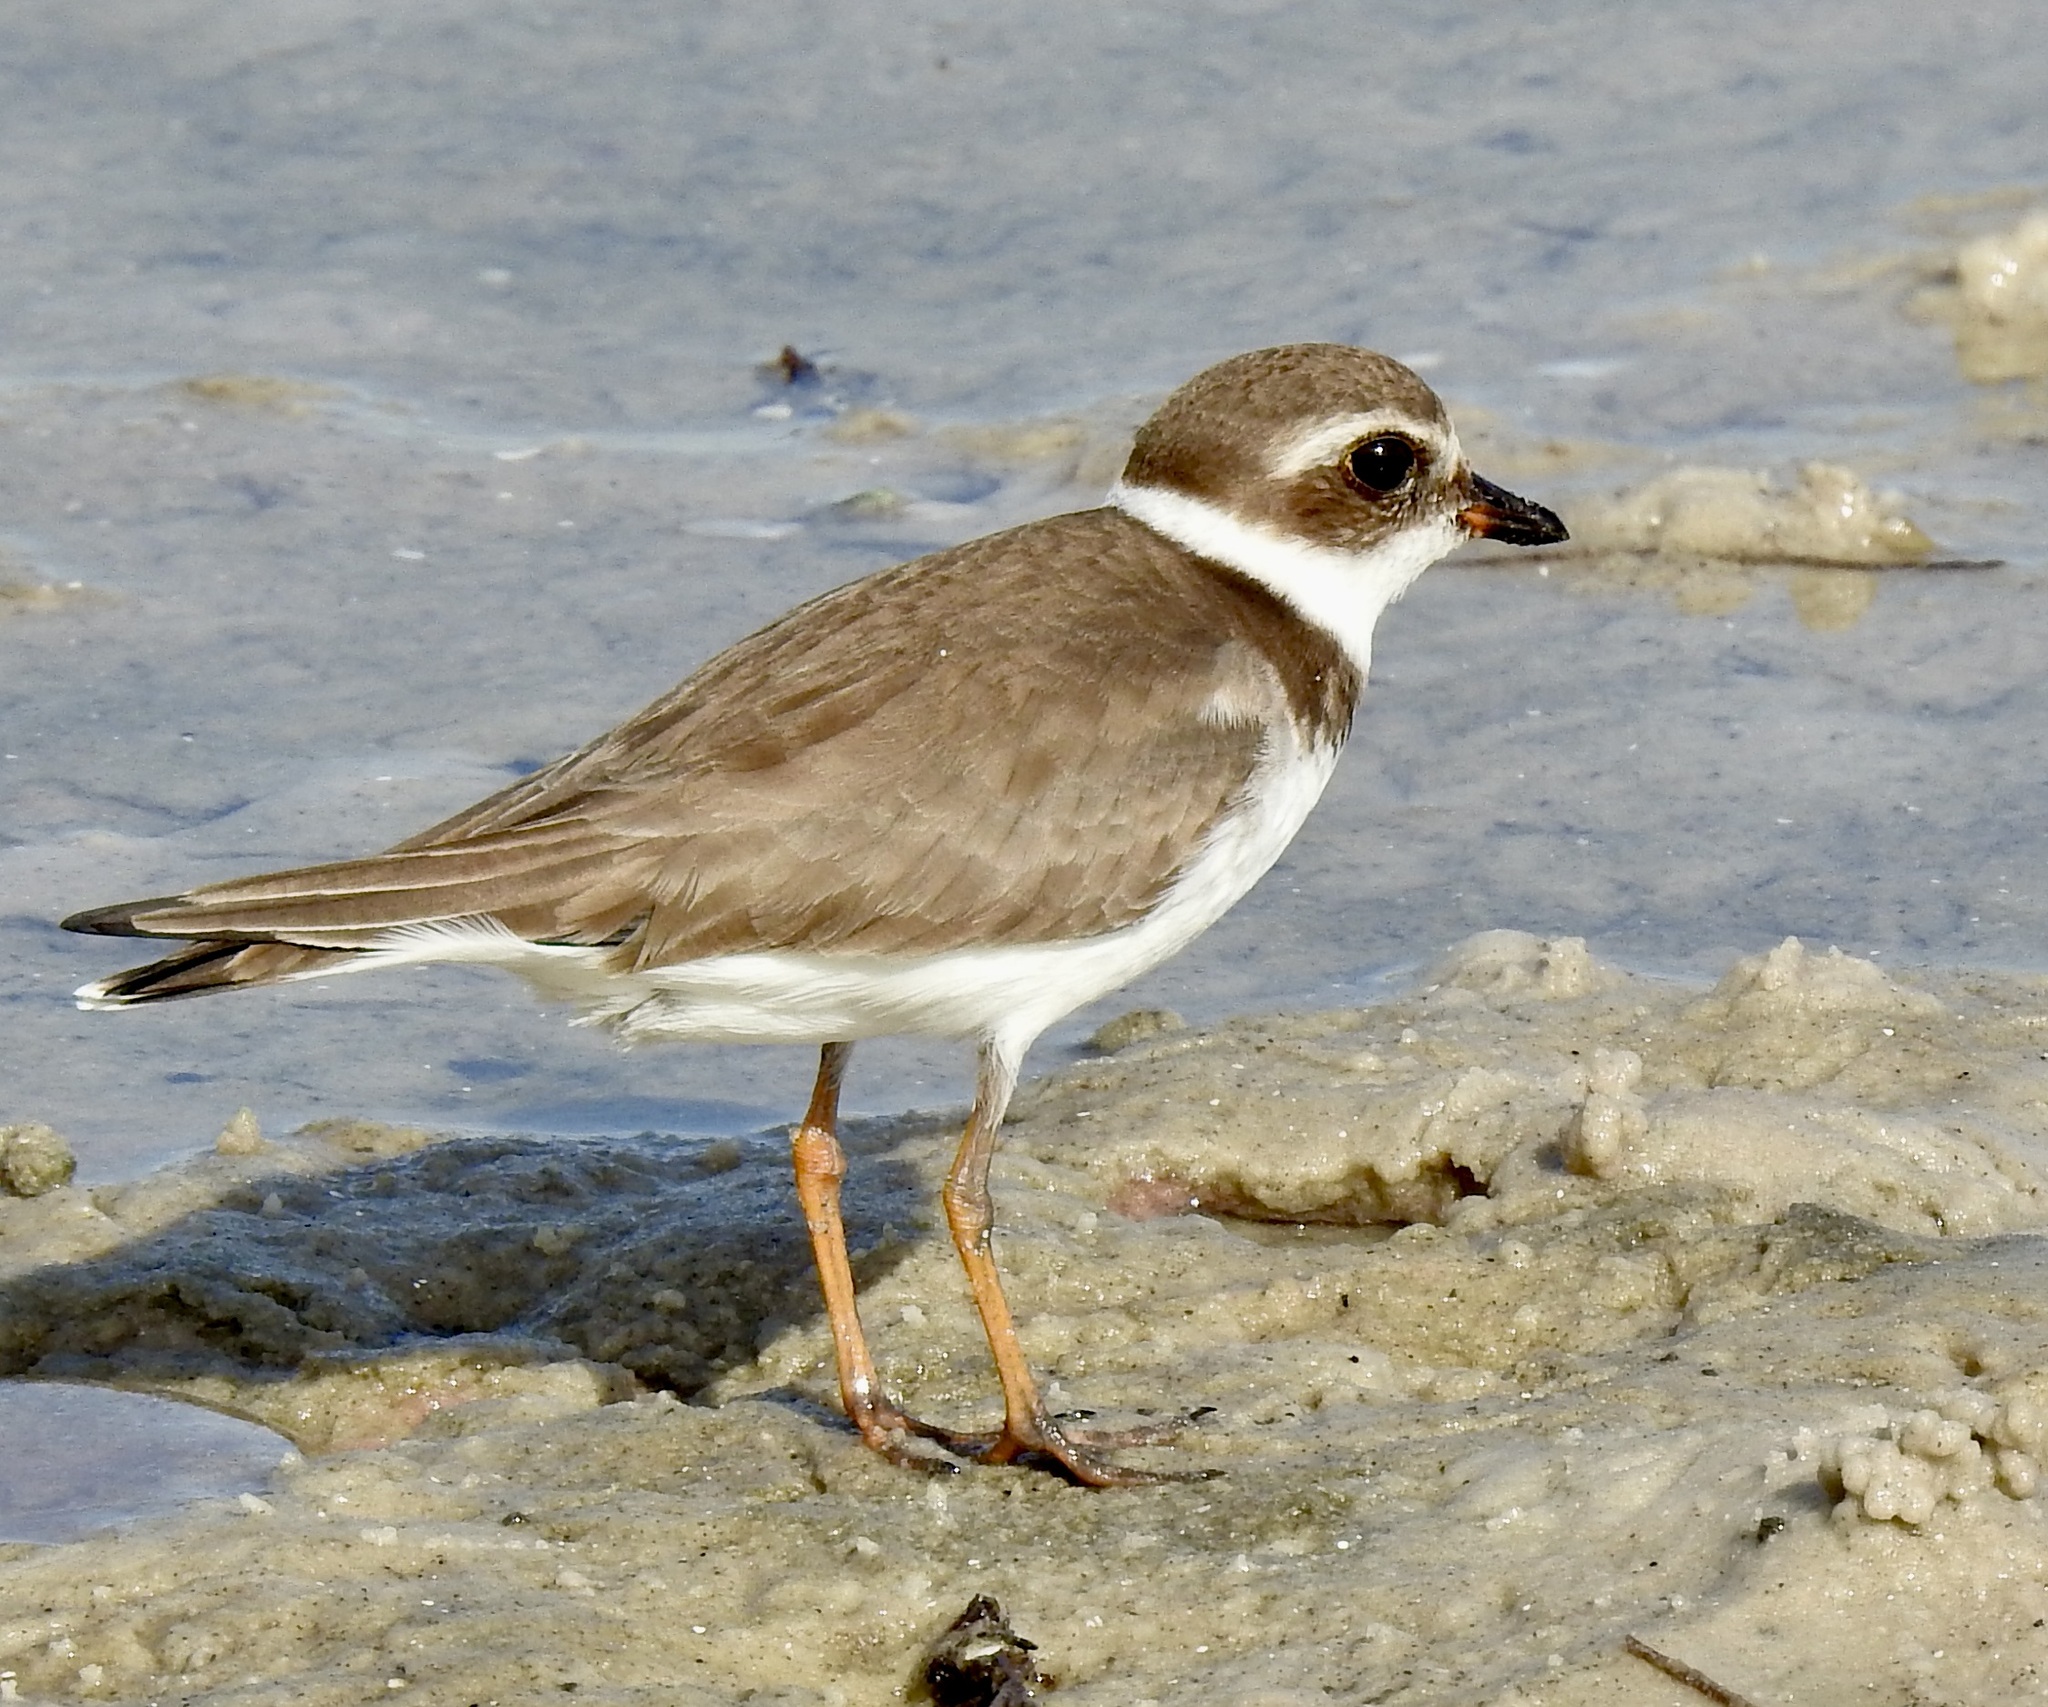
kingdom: Animalia
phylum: Chordata
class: Aves
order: Charadriiformes
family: Charadriidae
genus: Charadrius
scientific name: Charadrius semipalmatus
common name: Semipalmated plover
